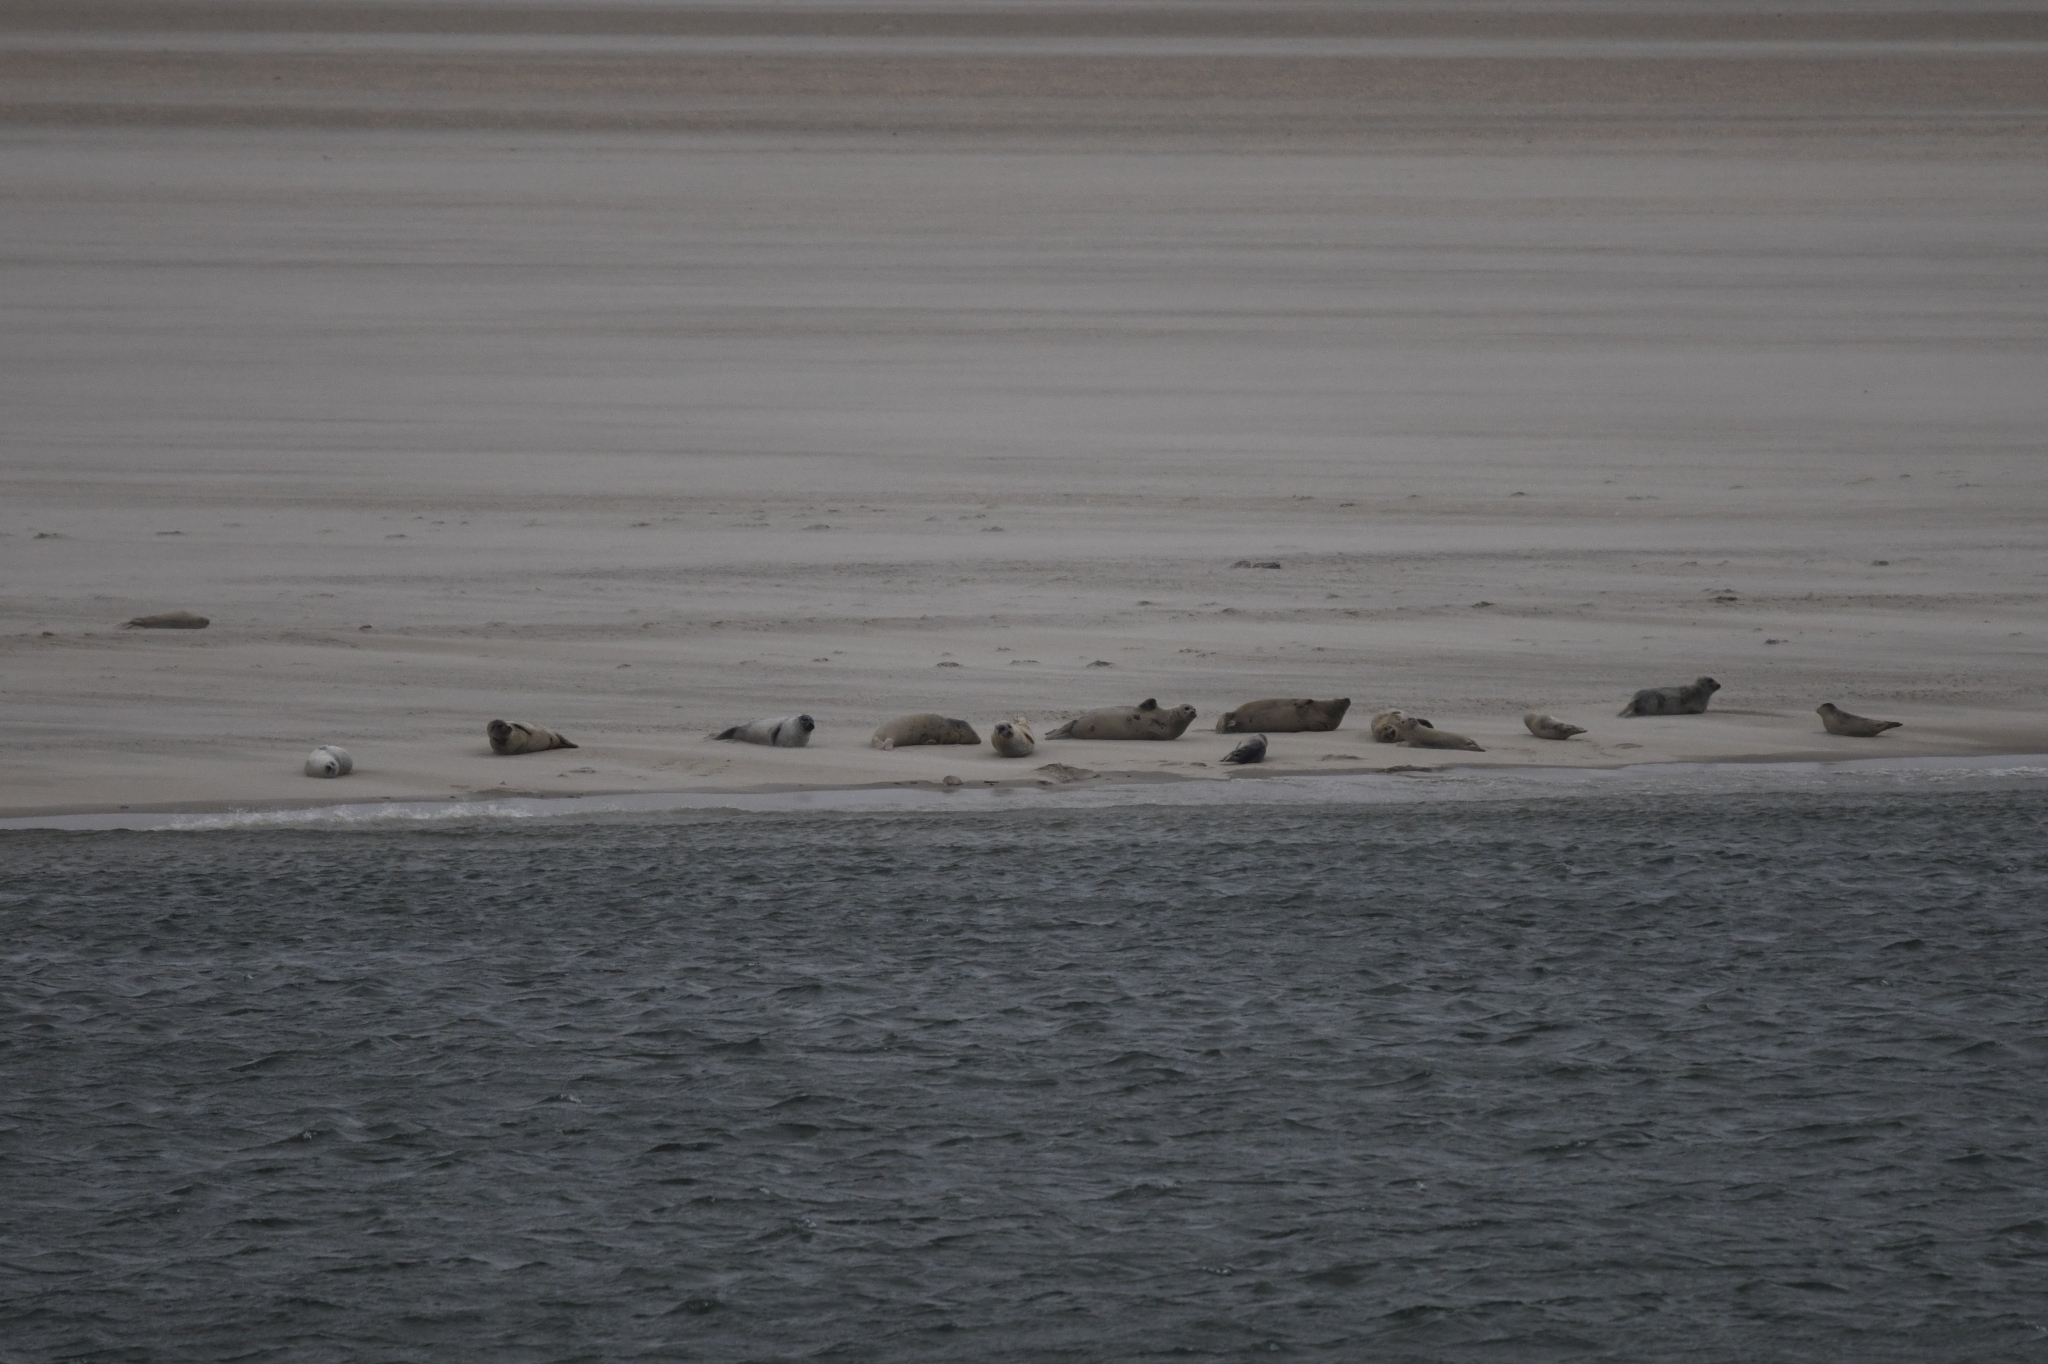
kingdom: Animalia
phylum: Chordata
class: Mammalia
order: Carnivora
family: Phocidae
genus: Phoca
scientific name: Phoca vitulina
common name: Harbor seal
